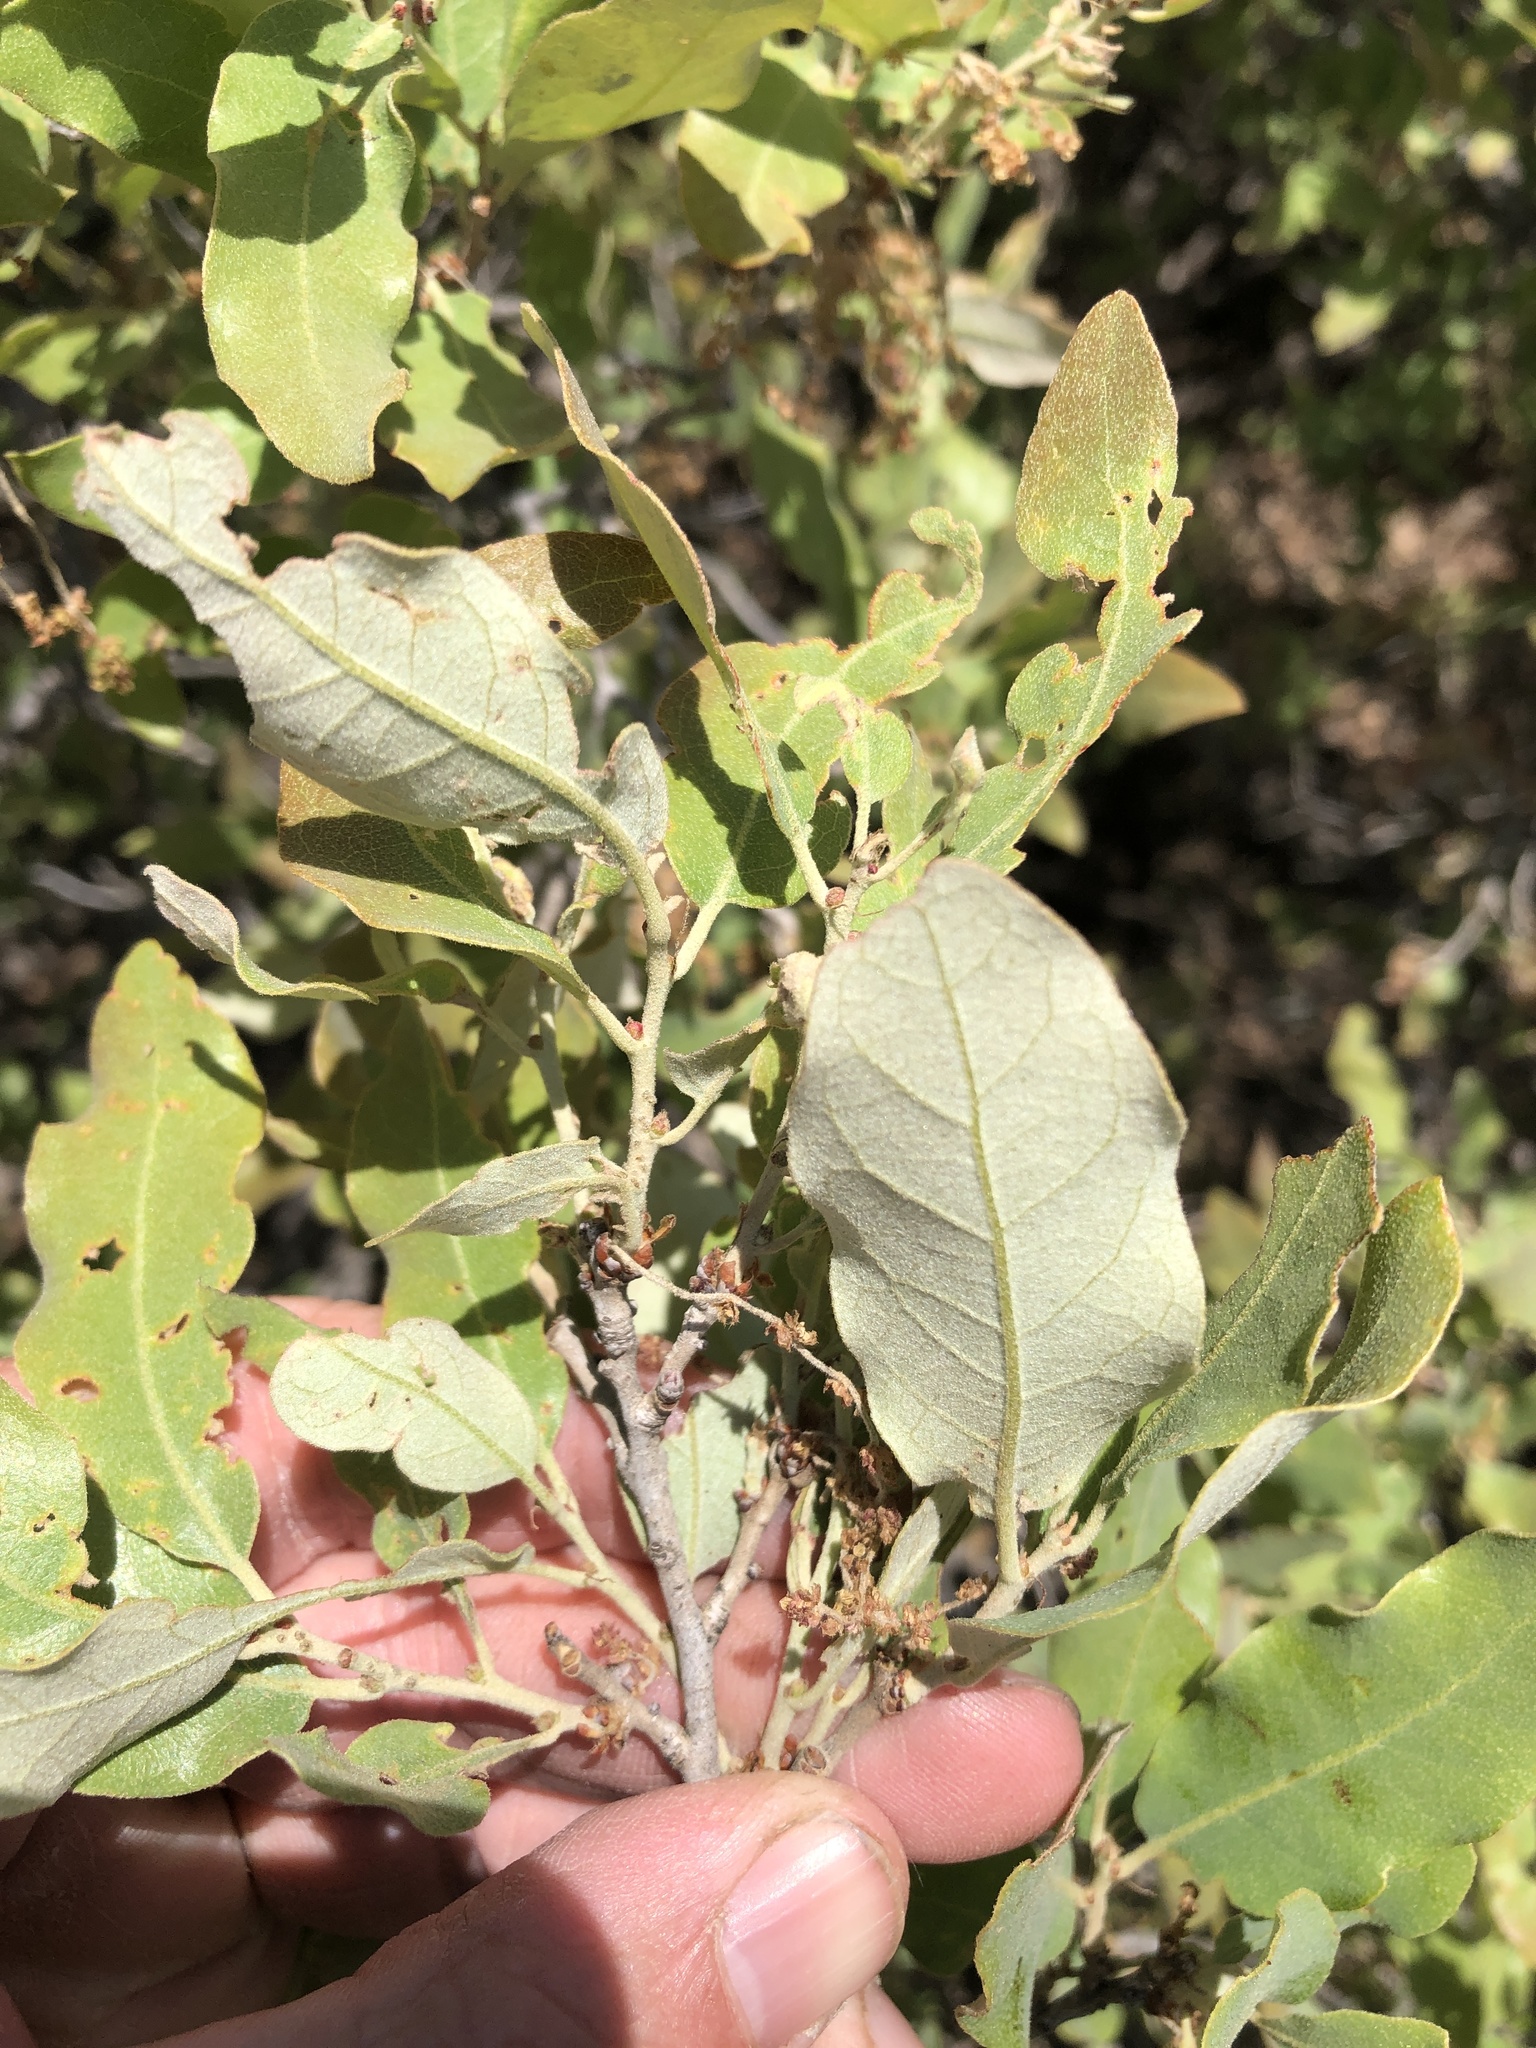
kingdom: Plantae
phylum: Tracheophyta
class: Magnoliopsida
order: Fagales
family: Fagaceae
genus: Quercus
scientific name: Quercus havardii
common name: Shinnery oak
